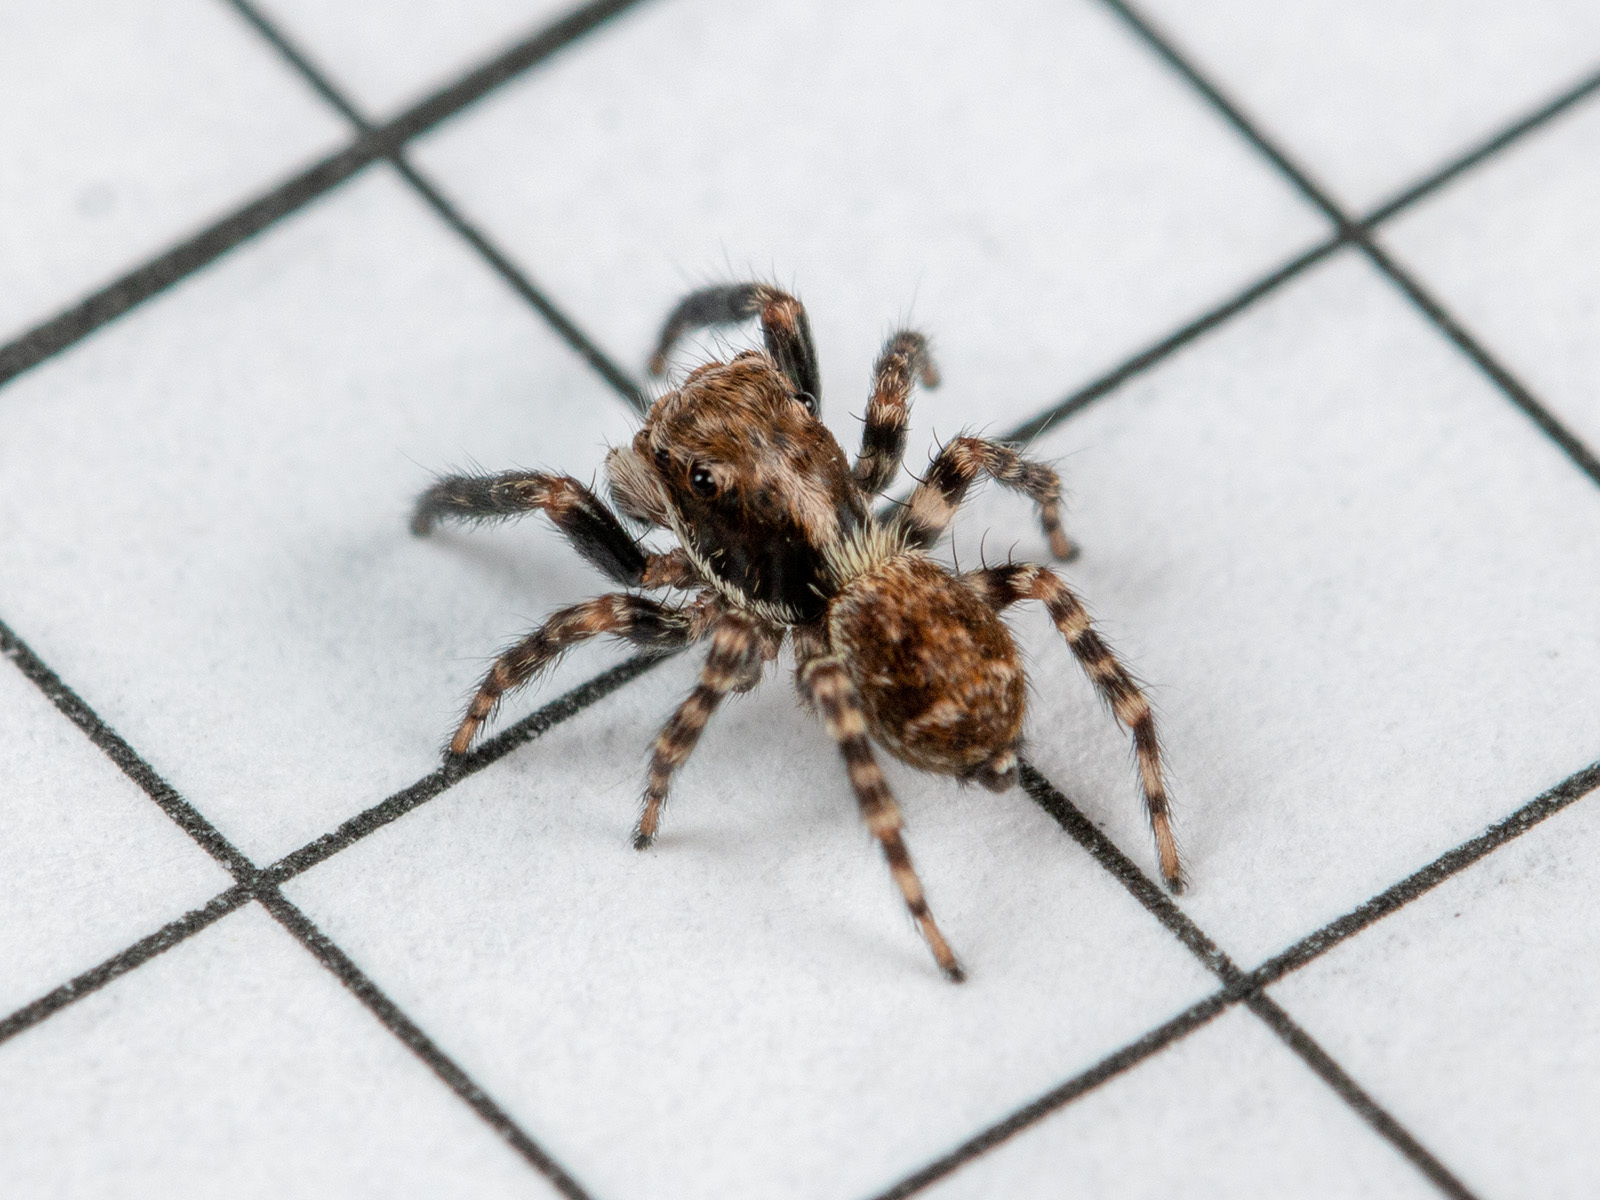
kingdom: Animalia
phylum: Arthropoda
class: Arachnida
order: Araneae
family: Salticidae
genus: Pseudeuophrys
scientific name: Pseudeuophrys obsoleta
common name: Whelk-shell jumper
